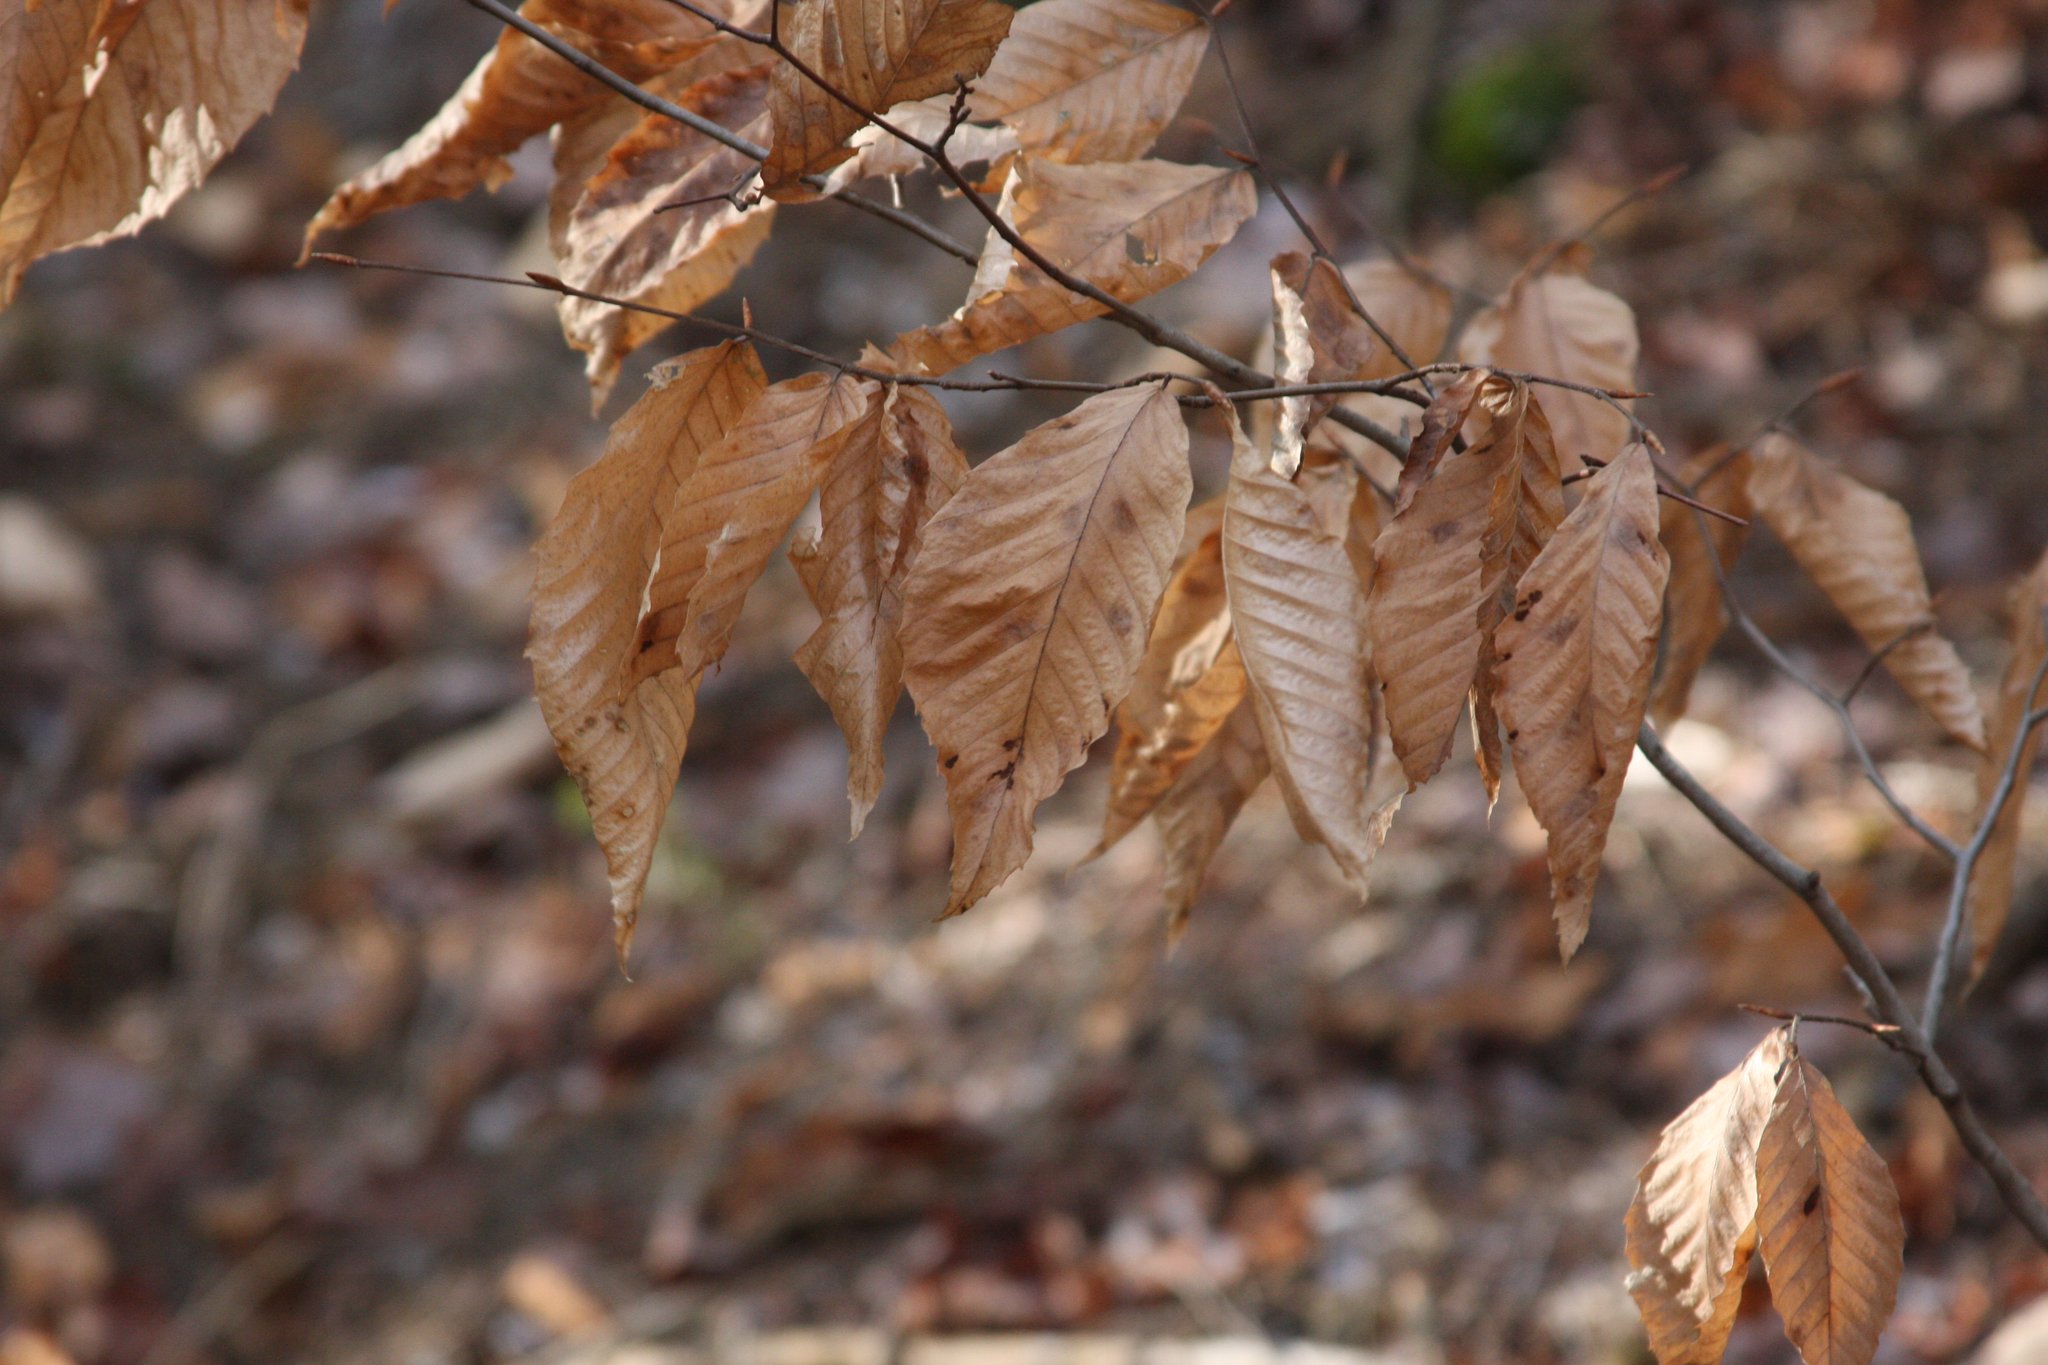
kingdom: Plantae
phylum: Tracheophyta
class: Magnoliopsida
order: Fagales
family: Fagaceae
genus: Fagus
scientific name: Fagus grandifolia
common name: American beech
